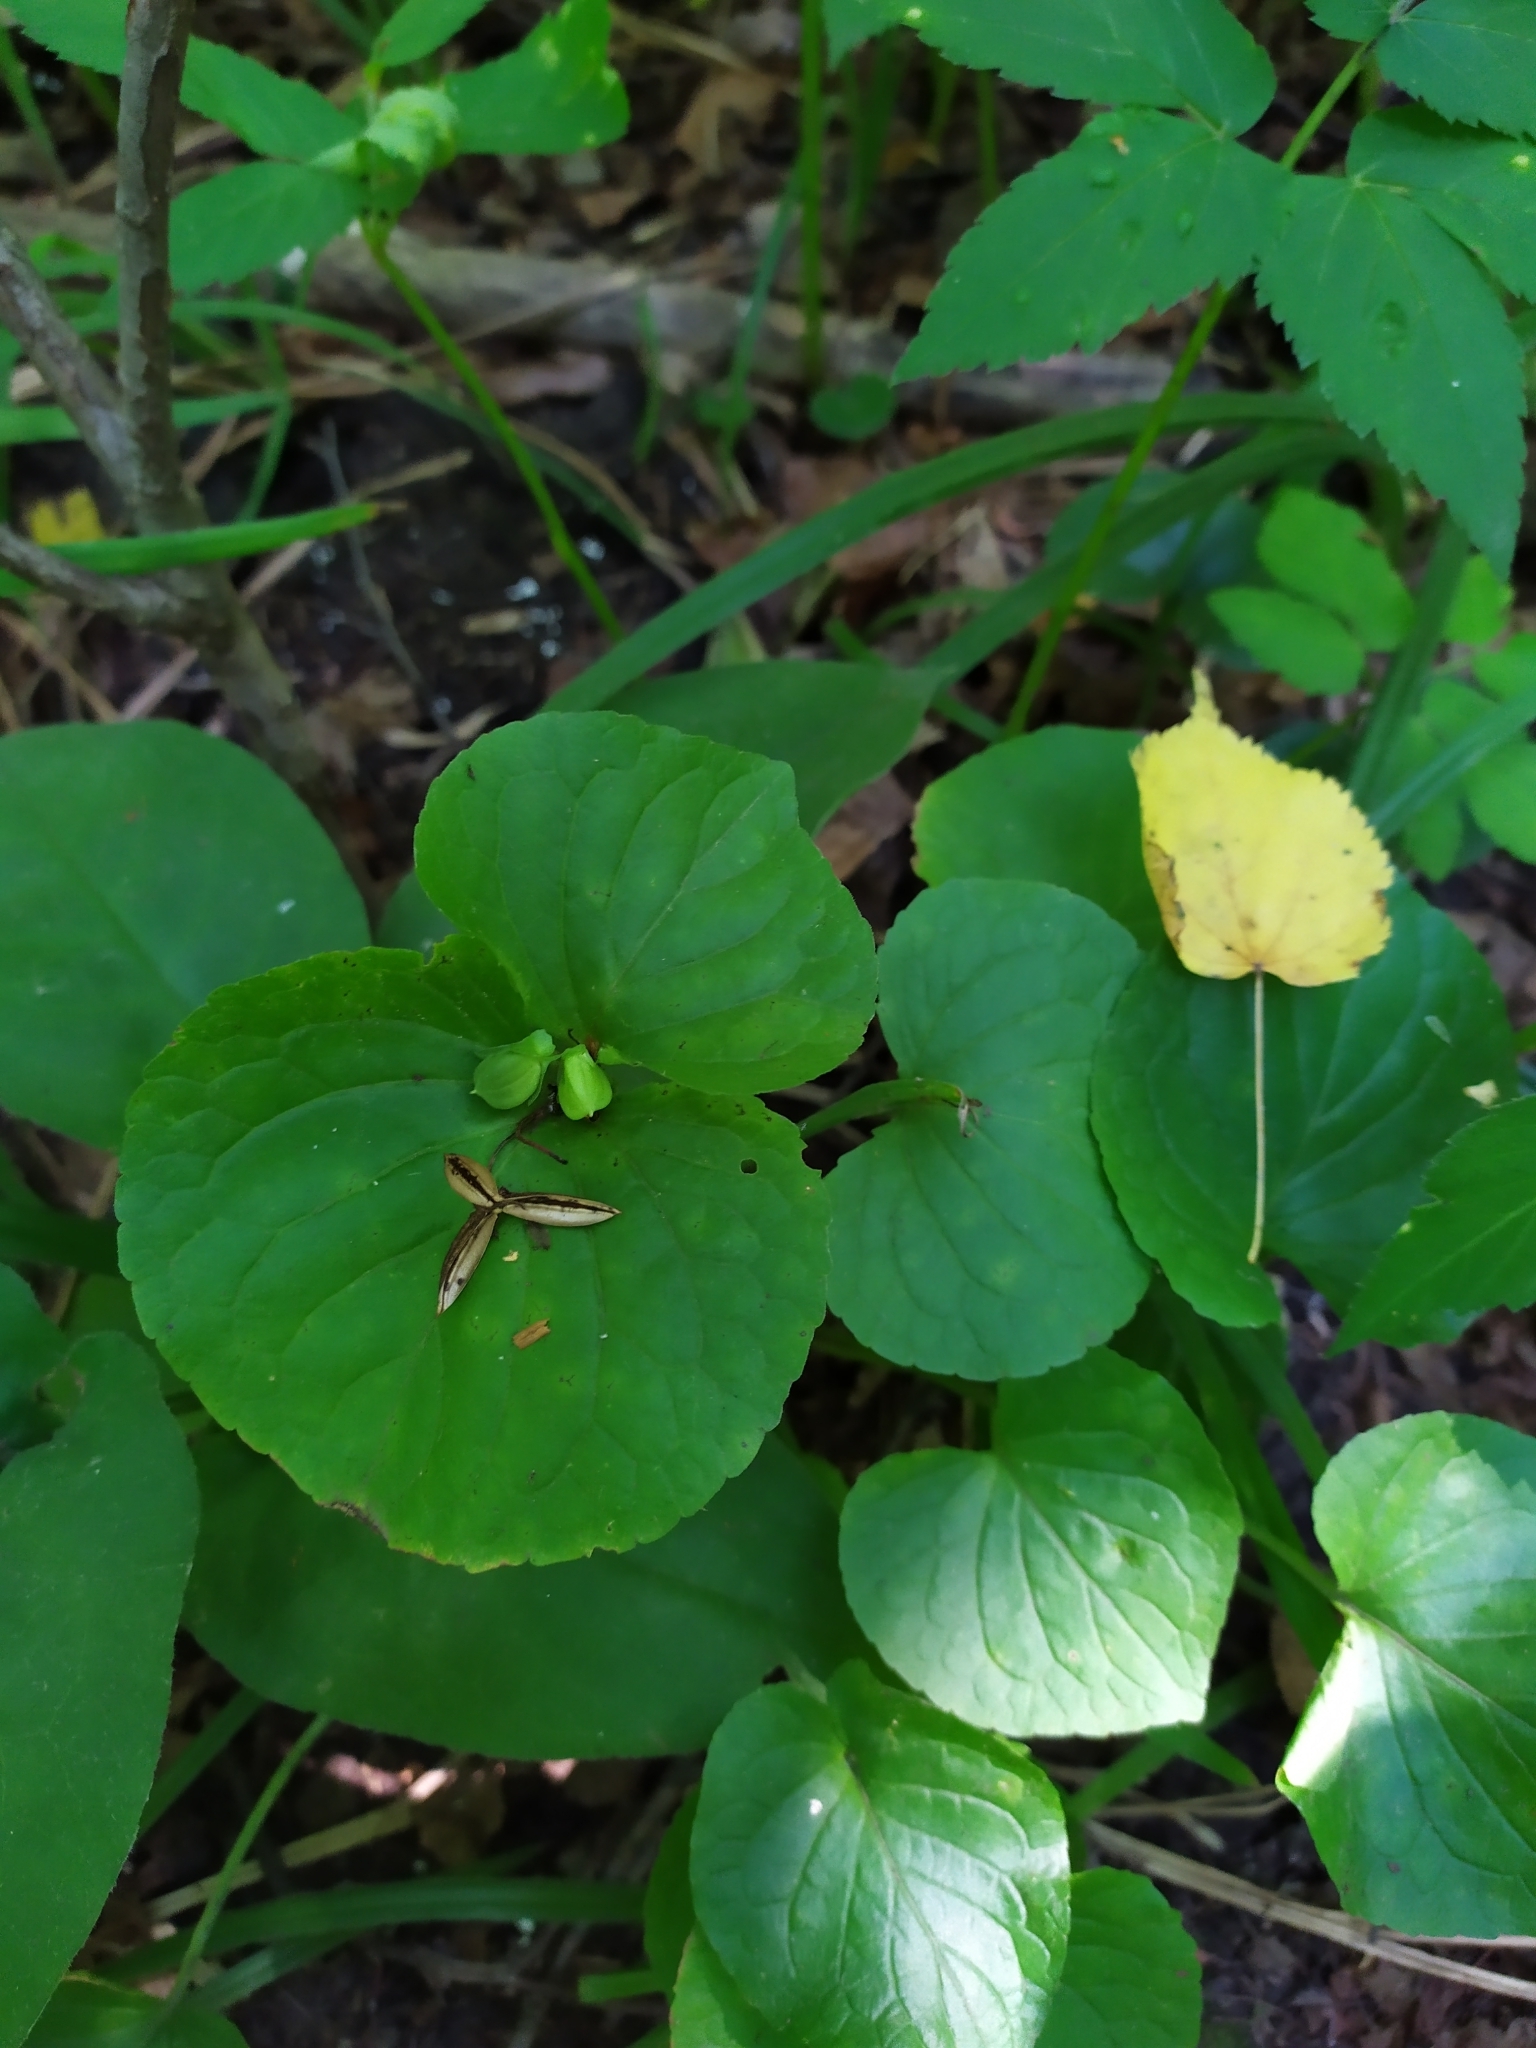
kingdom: Plantae
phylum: Tracheophyta
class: Magnoliopsida
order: Malpighiales
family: Violaceae
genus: Viola
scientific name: Viola mirabilis
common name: Wonder violet
